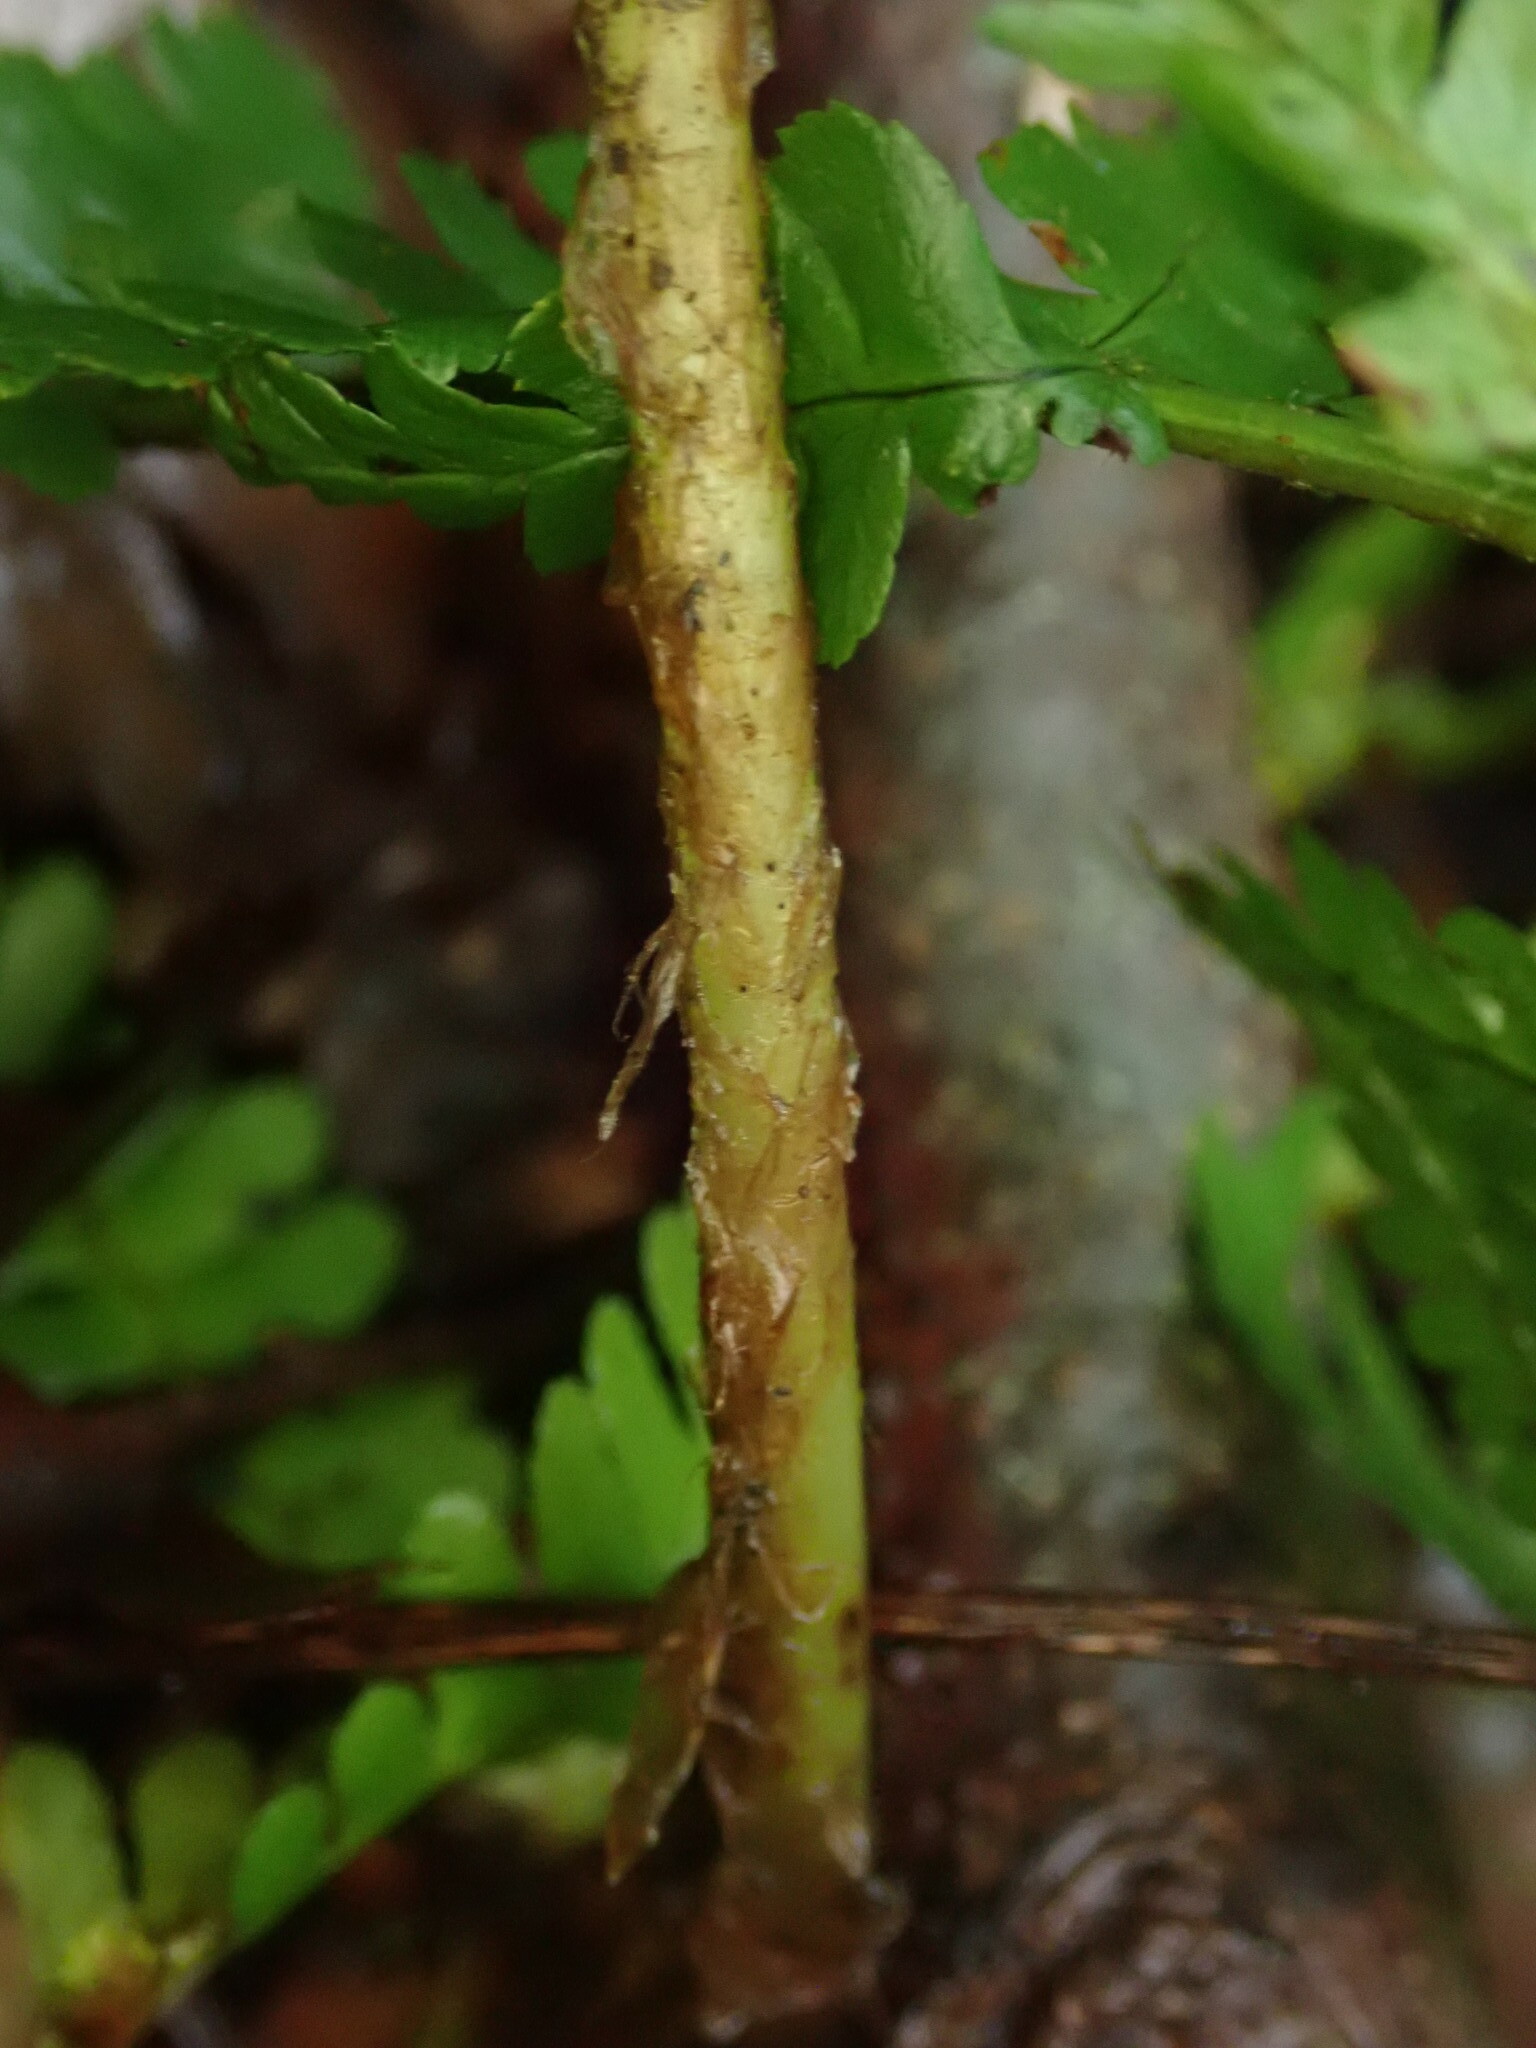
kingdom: Plantae
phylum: Tracheophyta
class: Polypodiopsida
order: Polypodiales
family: Dryopteridaceae
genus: Dryopteris
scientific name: Dryopteris filix-mas
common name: Male fern
